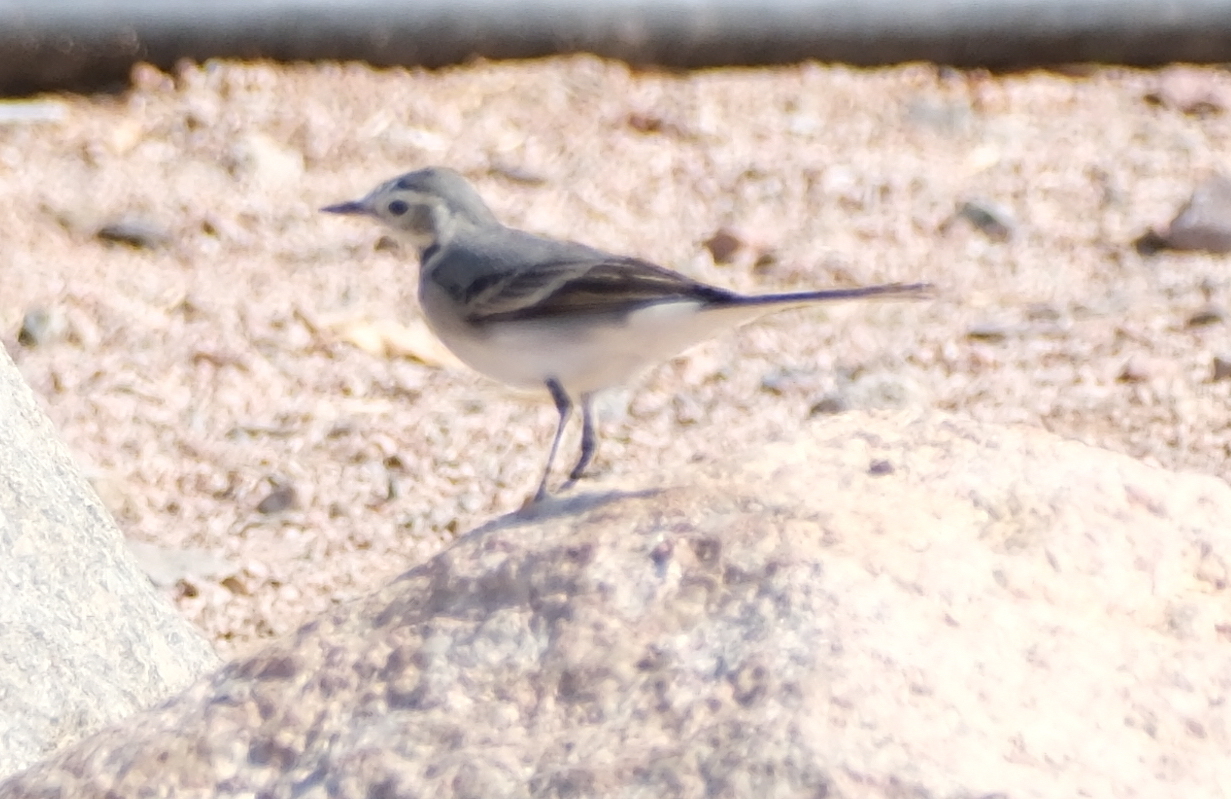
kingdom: Animalia
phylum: Chordata
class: Aves
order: Passeriformes
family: Motacillidae
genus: Motacilla
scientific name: Motacilla alba
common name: White wagtail
